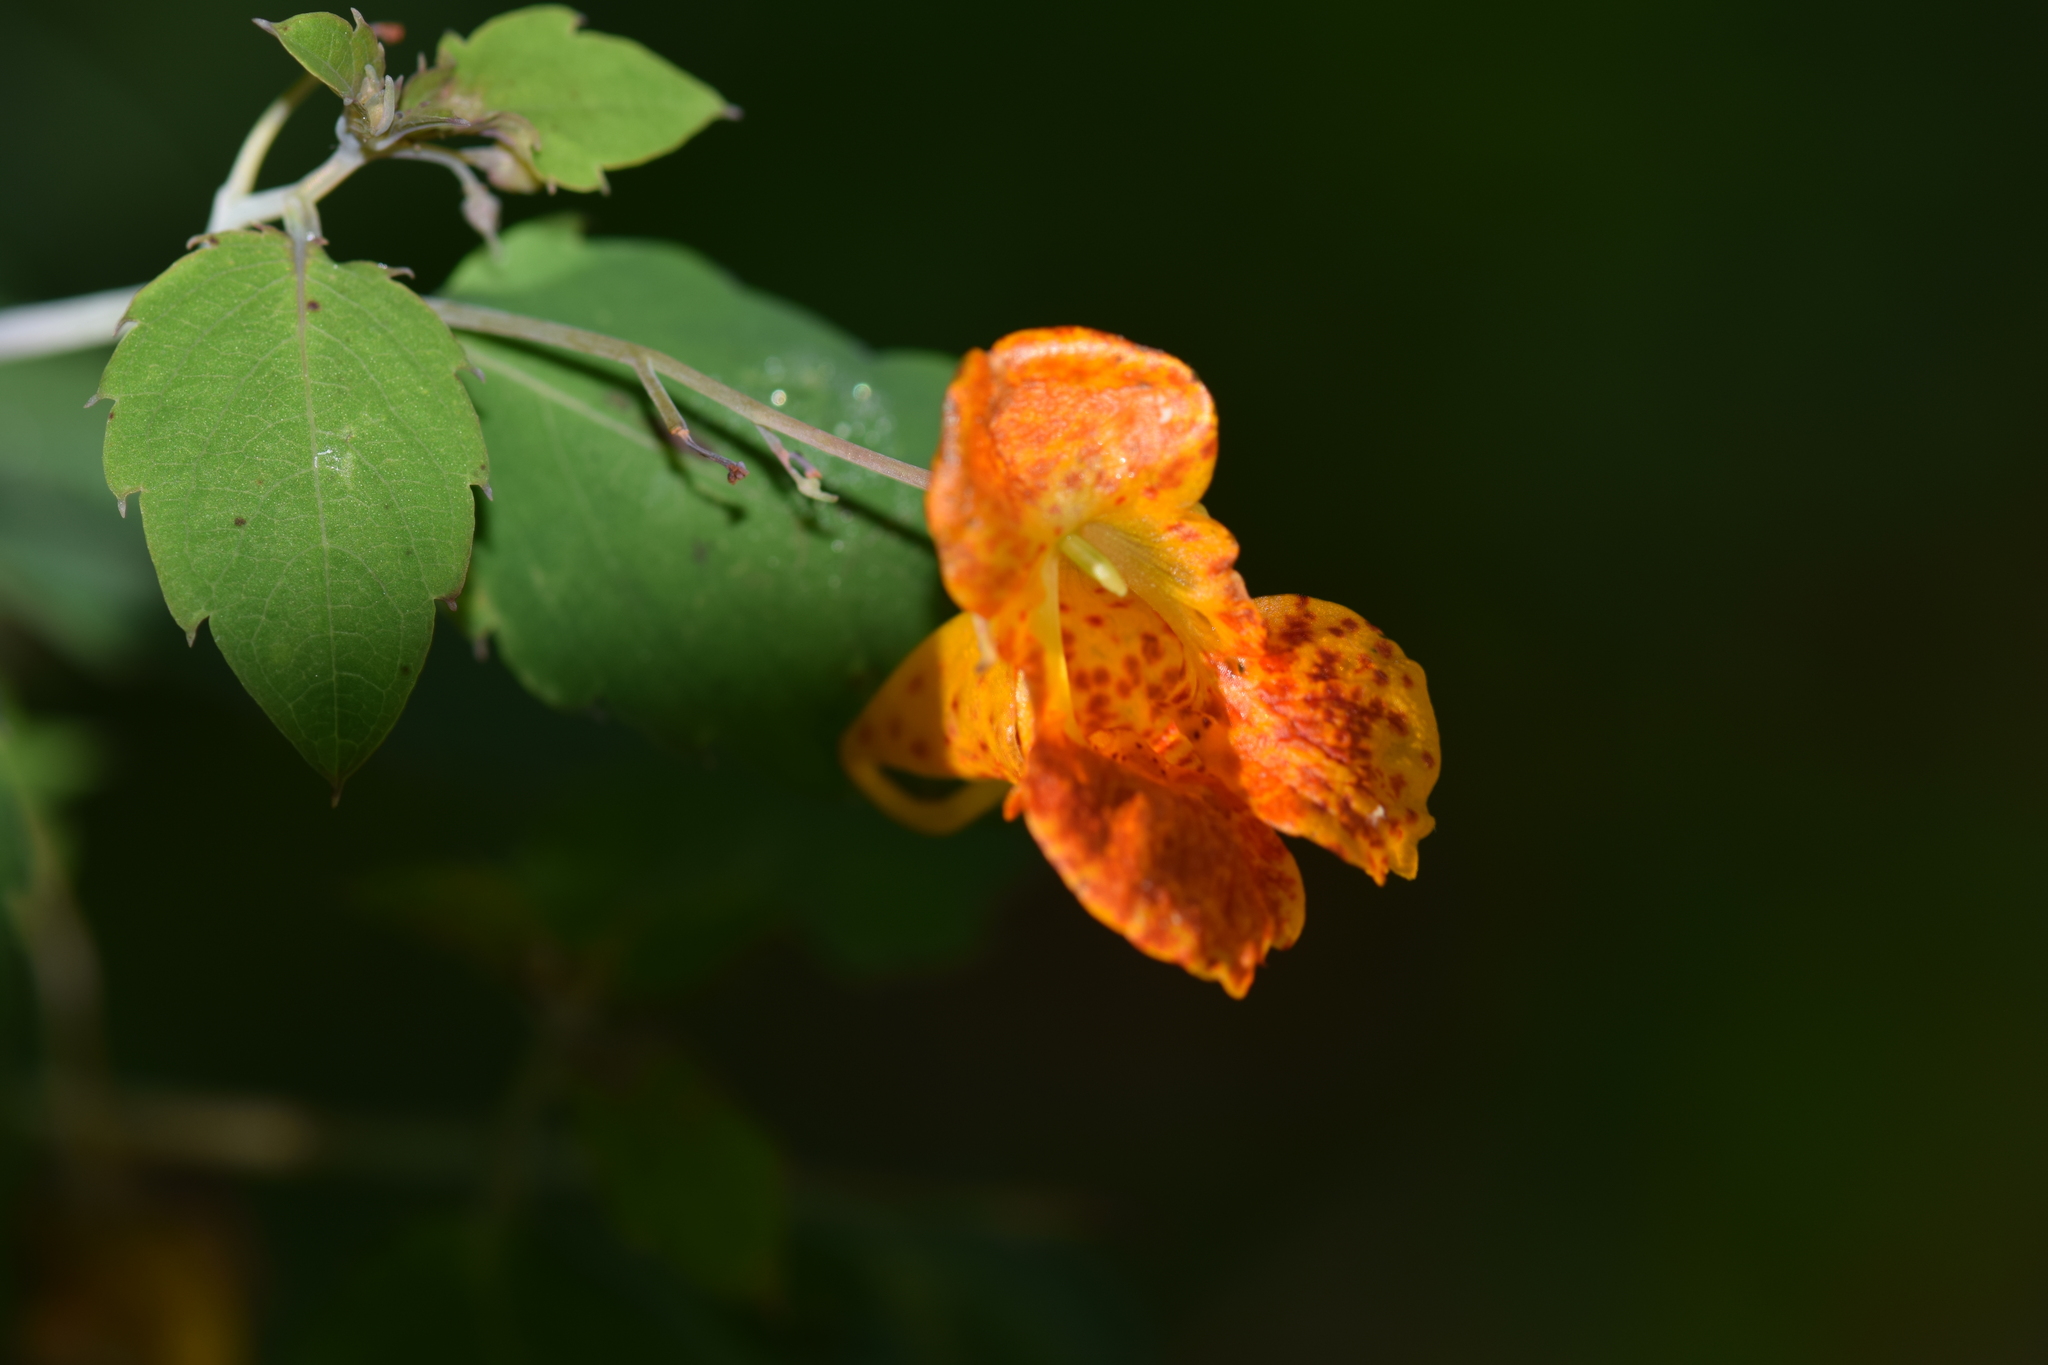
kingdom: Plantae
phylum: Tracheophyta
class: Magnoliopsida
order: Ericales
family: Balsaminaceae
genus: Impatiens
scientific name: Impatiens capensis
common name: Orange balsam
